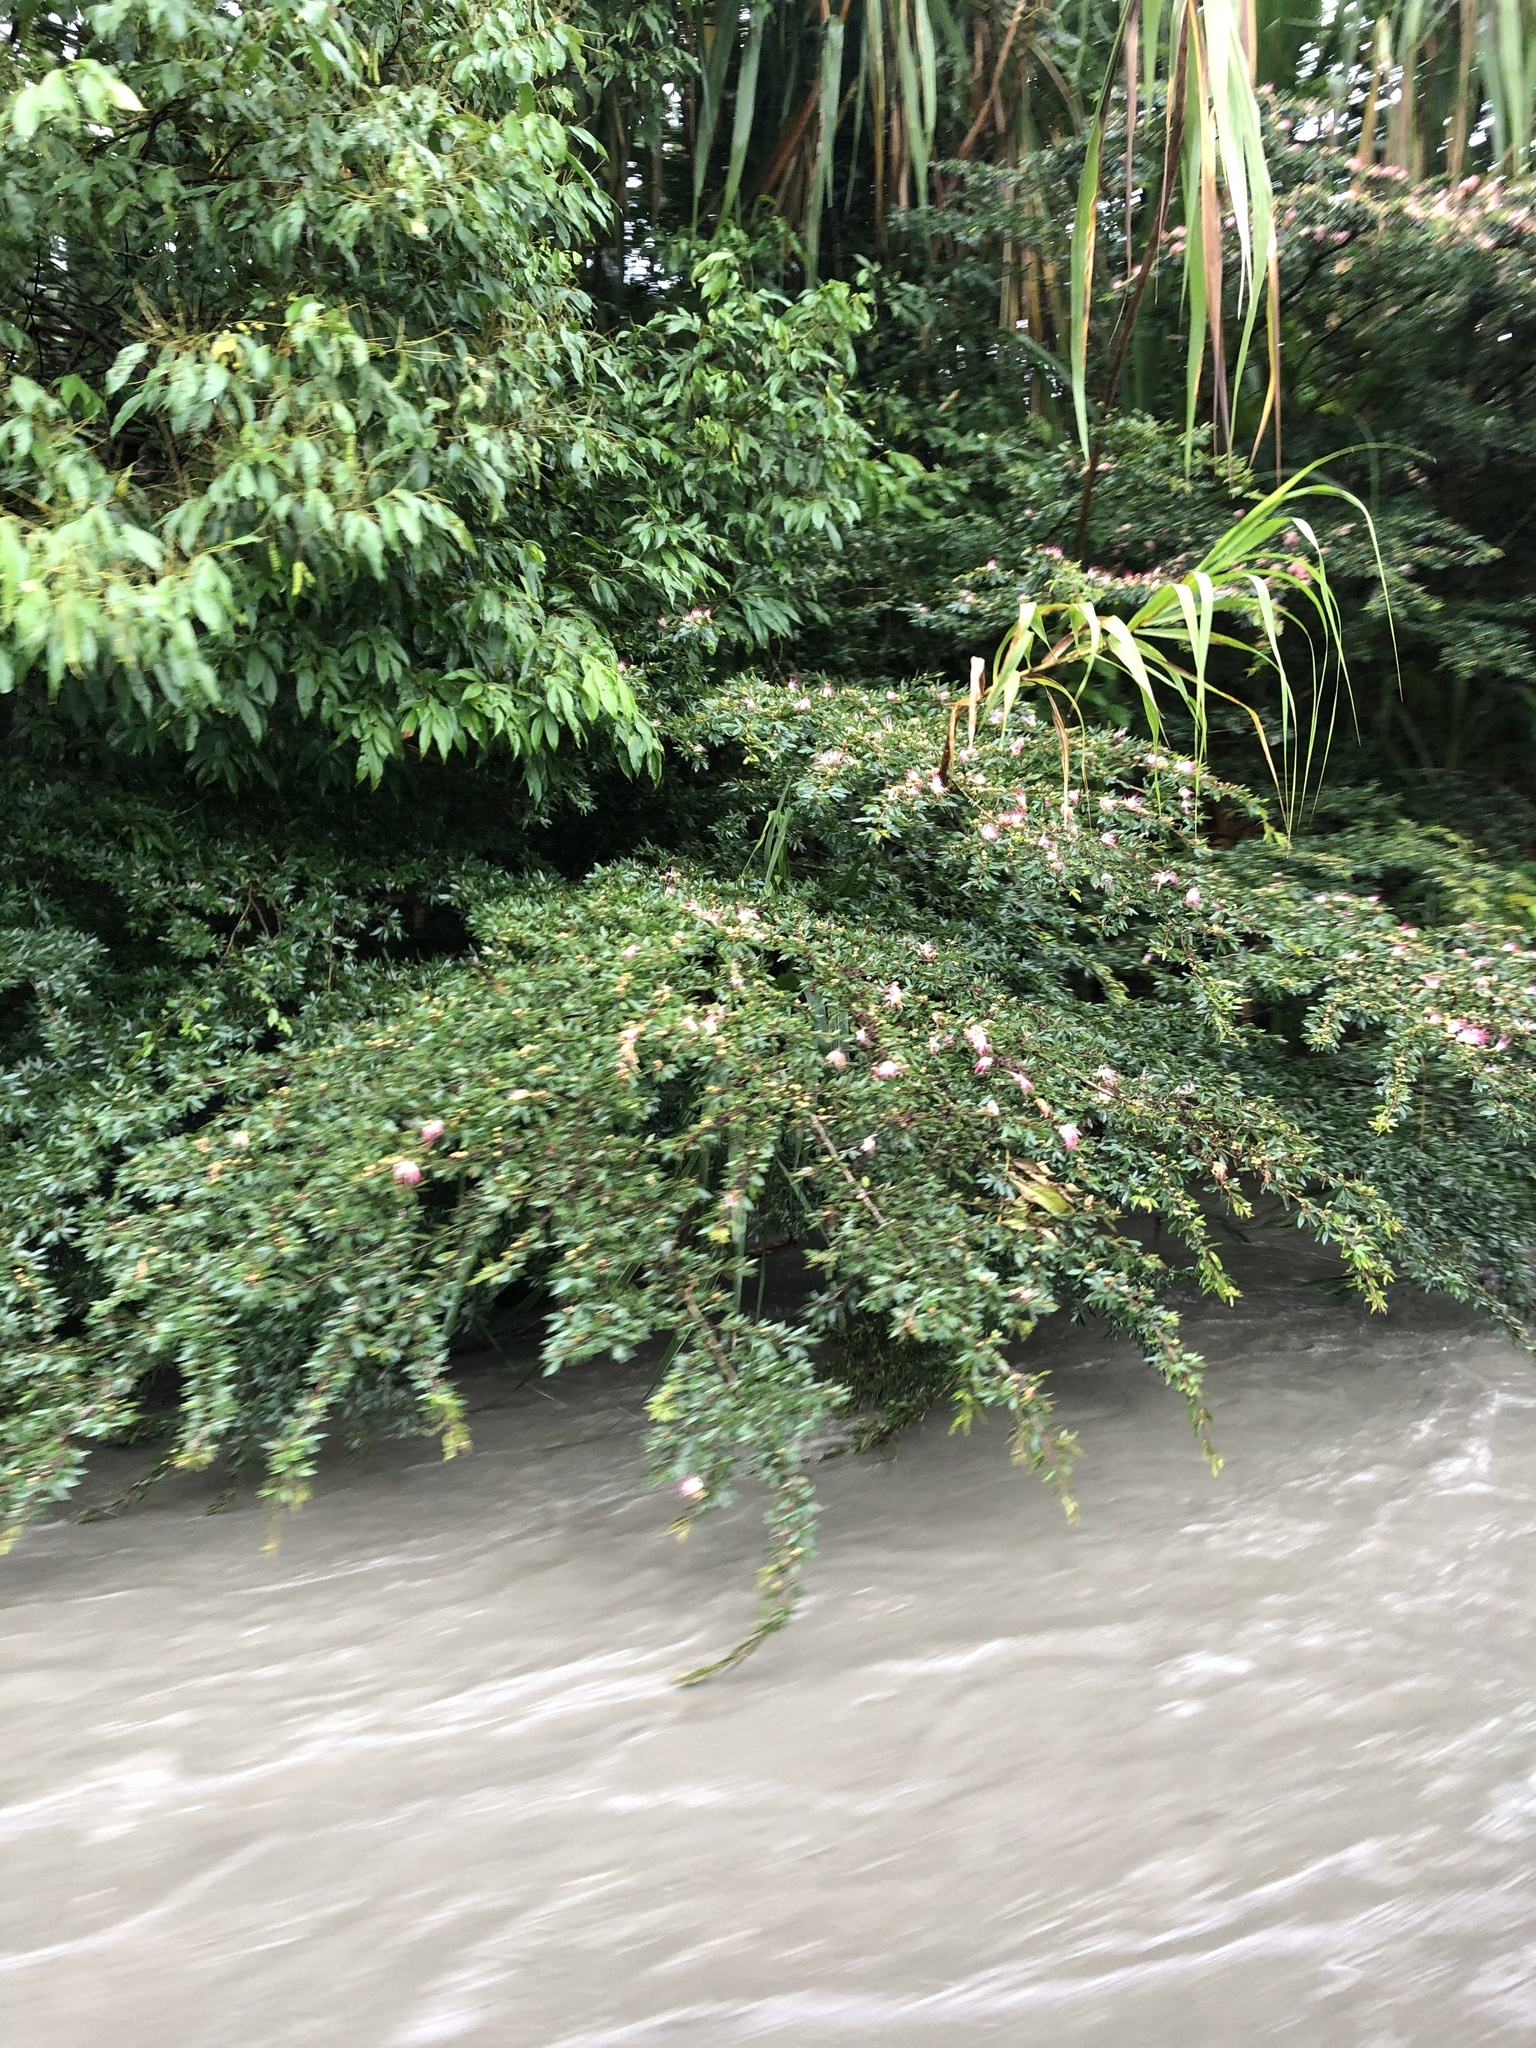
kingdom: Plantae
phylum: Tracheophyta
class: Magnoliopsida
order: Fabales
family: Fabaceae
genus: Calliandra
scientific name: Calliandra angustifolia
